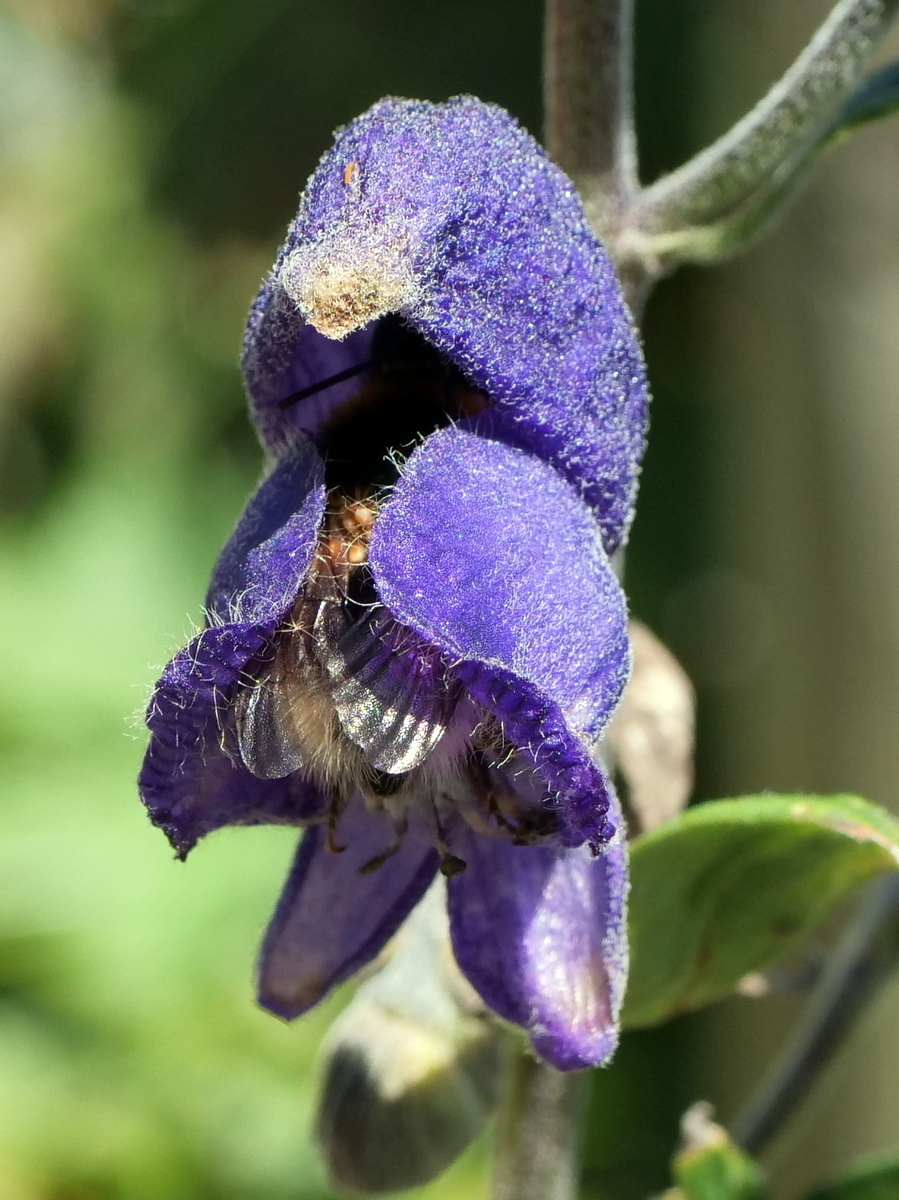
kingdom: Plantae
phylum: Tracheophyta
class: Magnoliopsida
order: Ranunculales
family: Ranunculaceae
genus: Aconitum
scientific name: Aconitum napellus
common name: Garden monkshood
